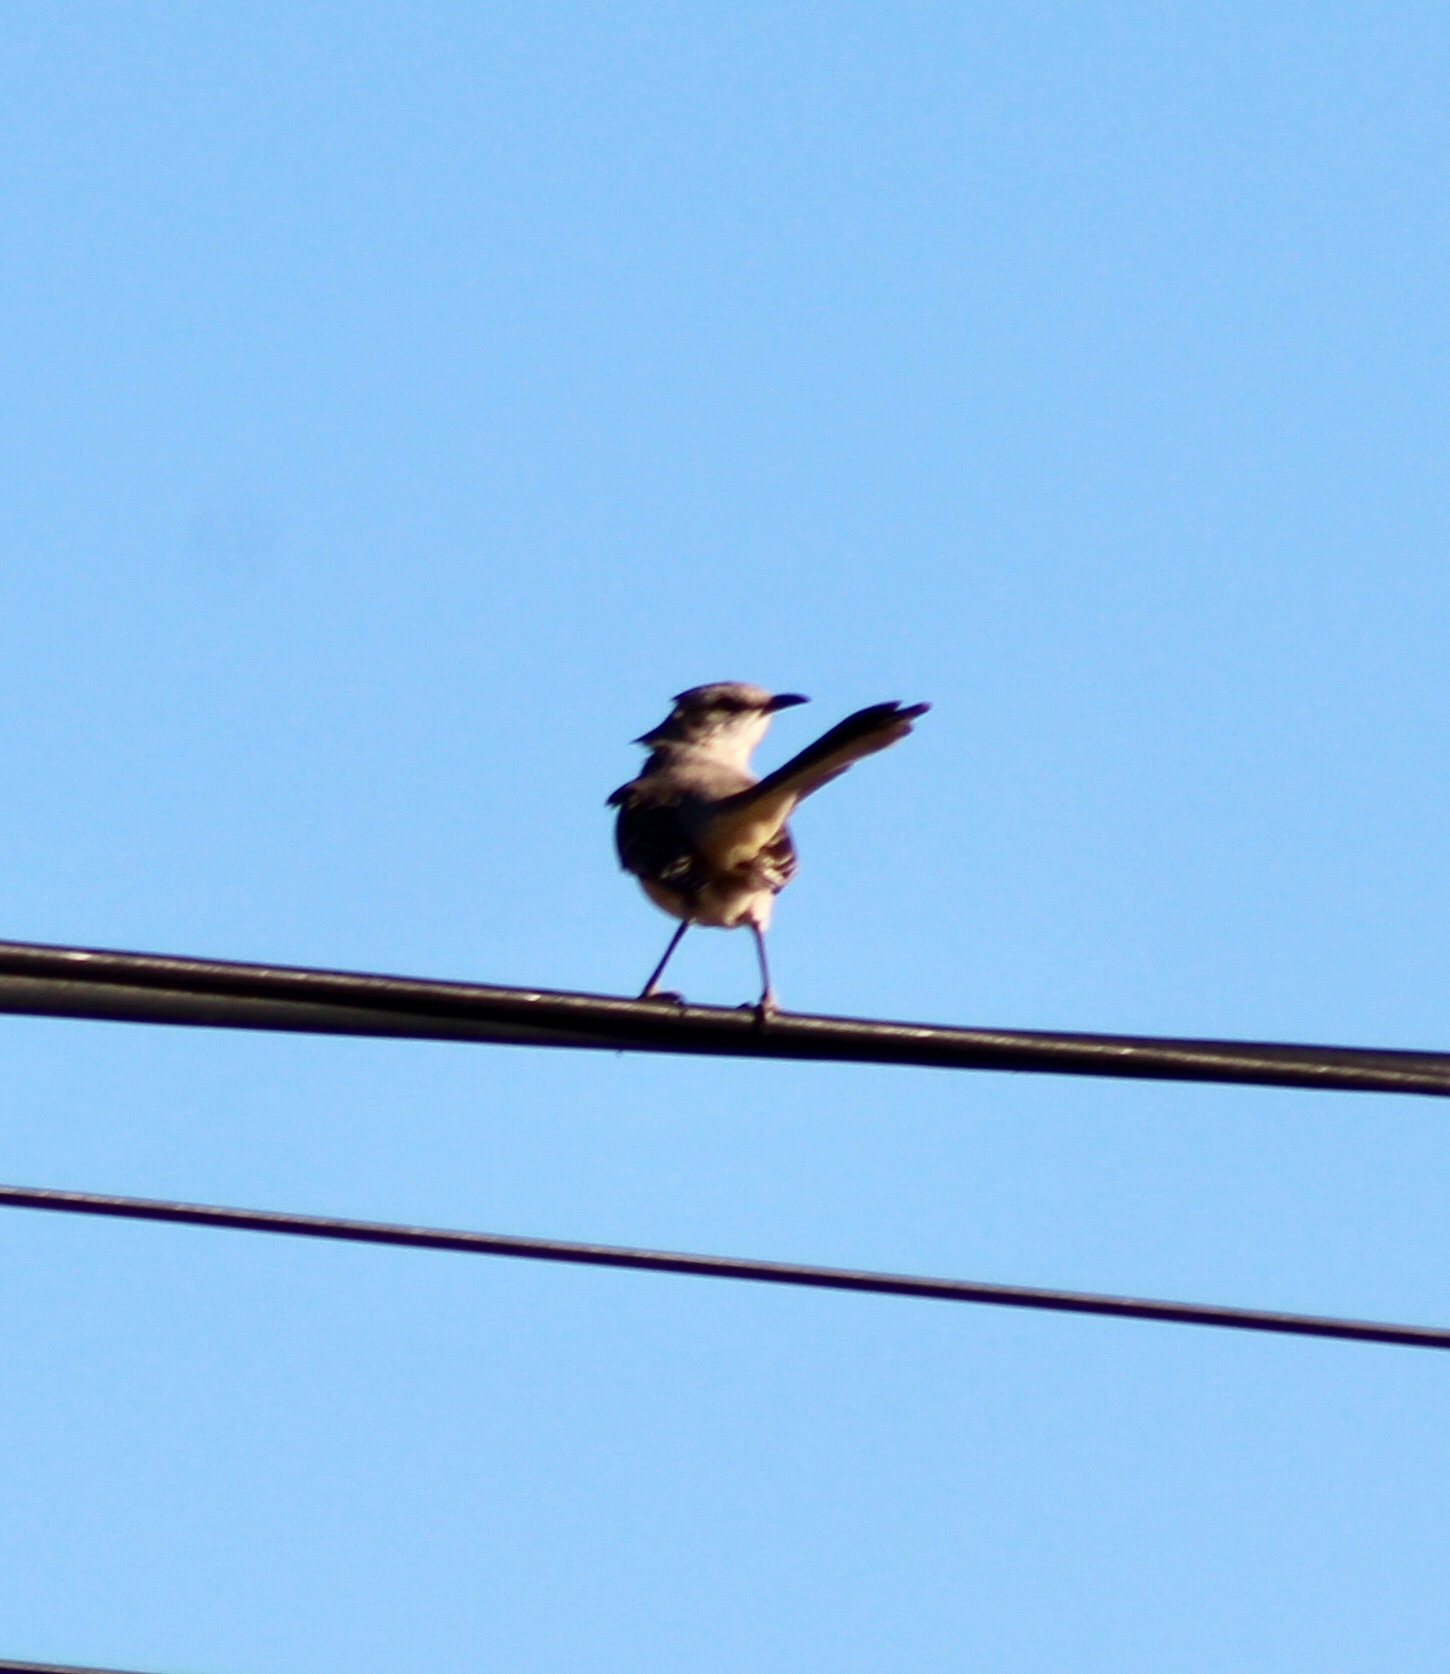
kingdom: Animalia
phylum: Chordata
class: Aves
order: Passeriformes
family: Mimidae
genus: Mimus
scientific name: Mimus polyglottos
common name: Northern mockingbird
